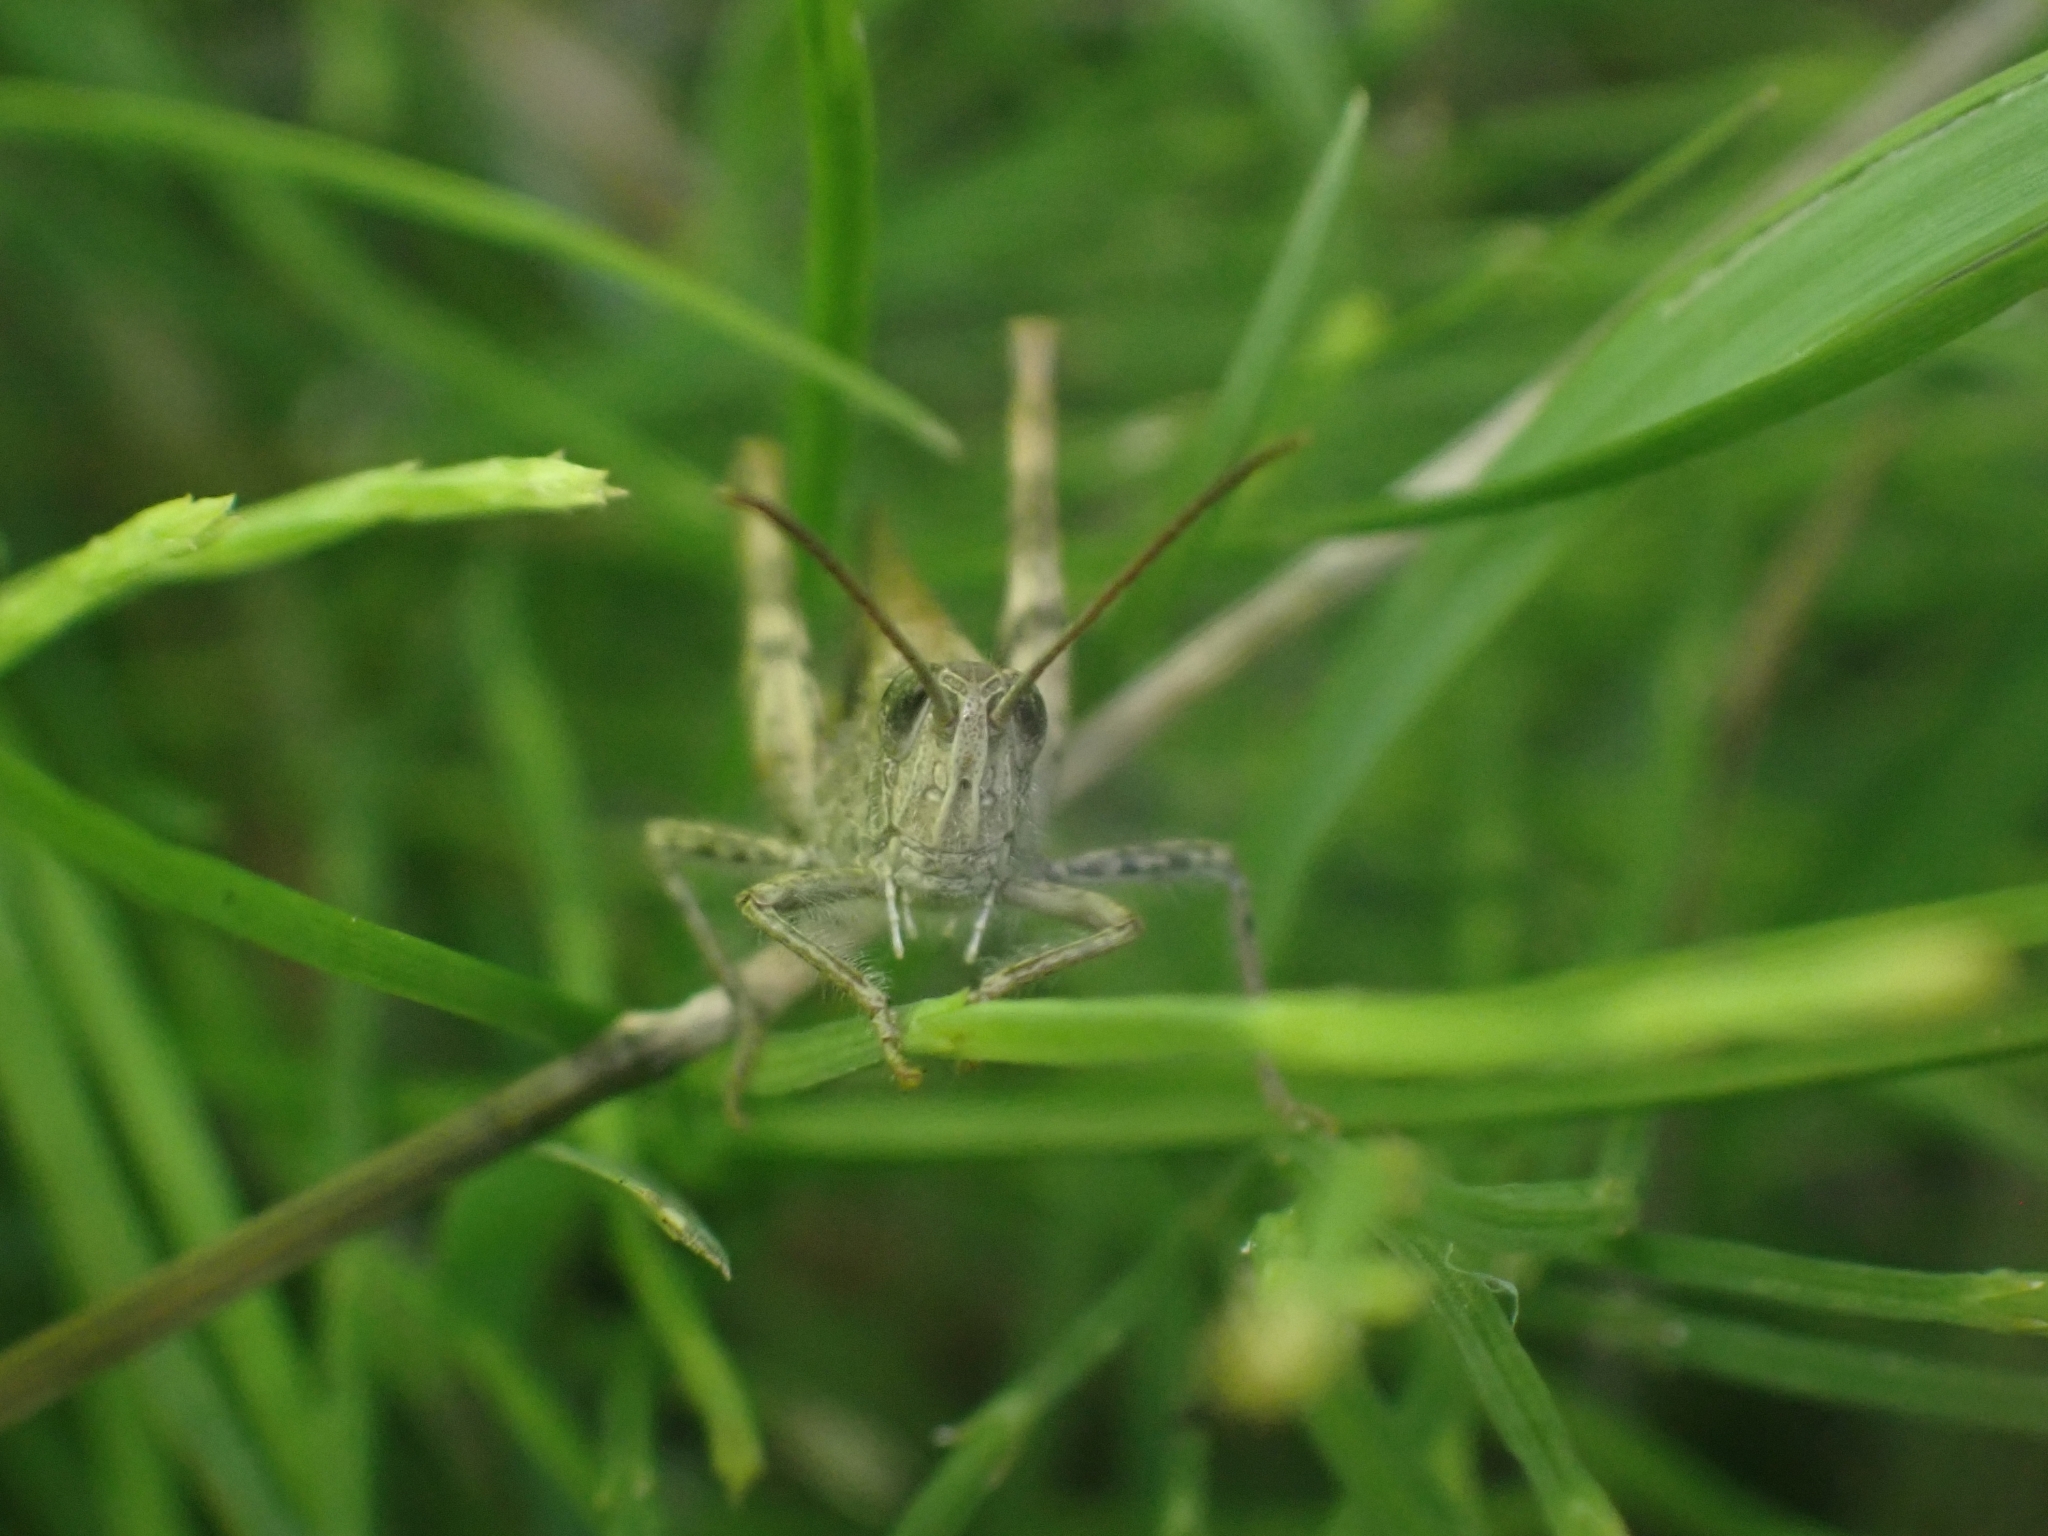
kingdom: Animalia
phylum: Arthropoda
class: Insecta
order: Orthoptera
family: Acrididae
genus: Chorthippus
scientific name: Chorthippus brunneus
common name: Field grasshopper
